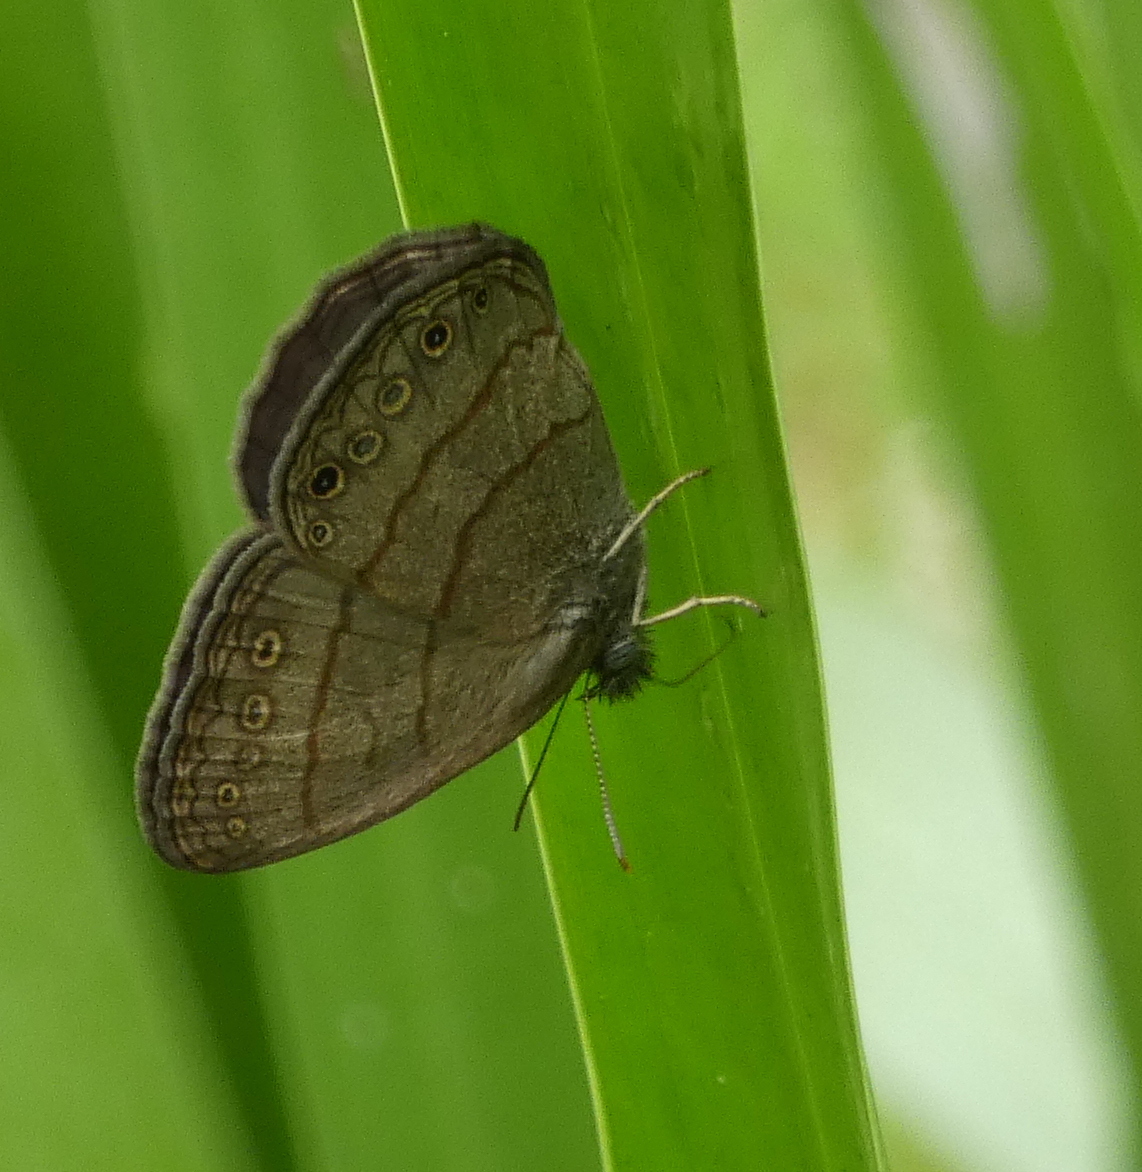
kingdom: Animalia
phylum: Arthropoda
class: Insecta
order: Lepidoptera
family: Nymphalidae
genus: Hermeuptychia
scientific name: Hermeuptychia hermes
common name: Hermes satyr
